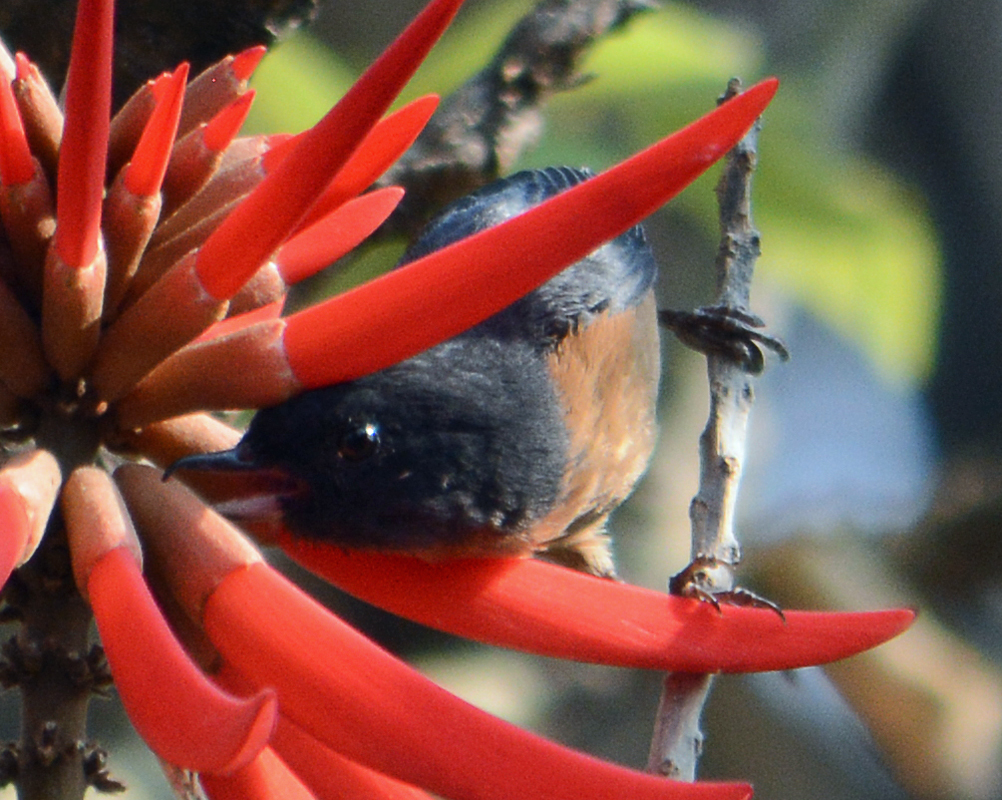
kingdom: Animalia
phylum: Chordata
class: Aves
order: Passeriformes
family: Thraupidae
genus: Diglossa
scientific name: Diglossa baritula
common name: Cinnamon-bellied flowerpiercer
